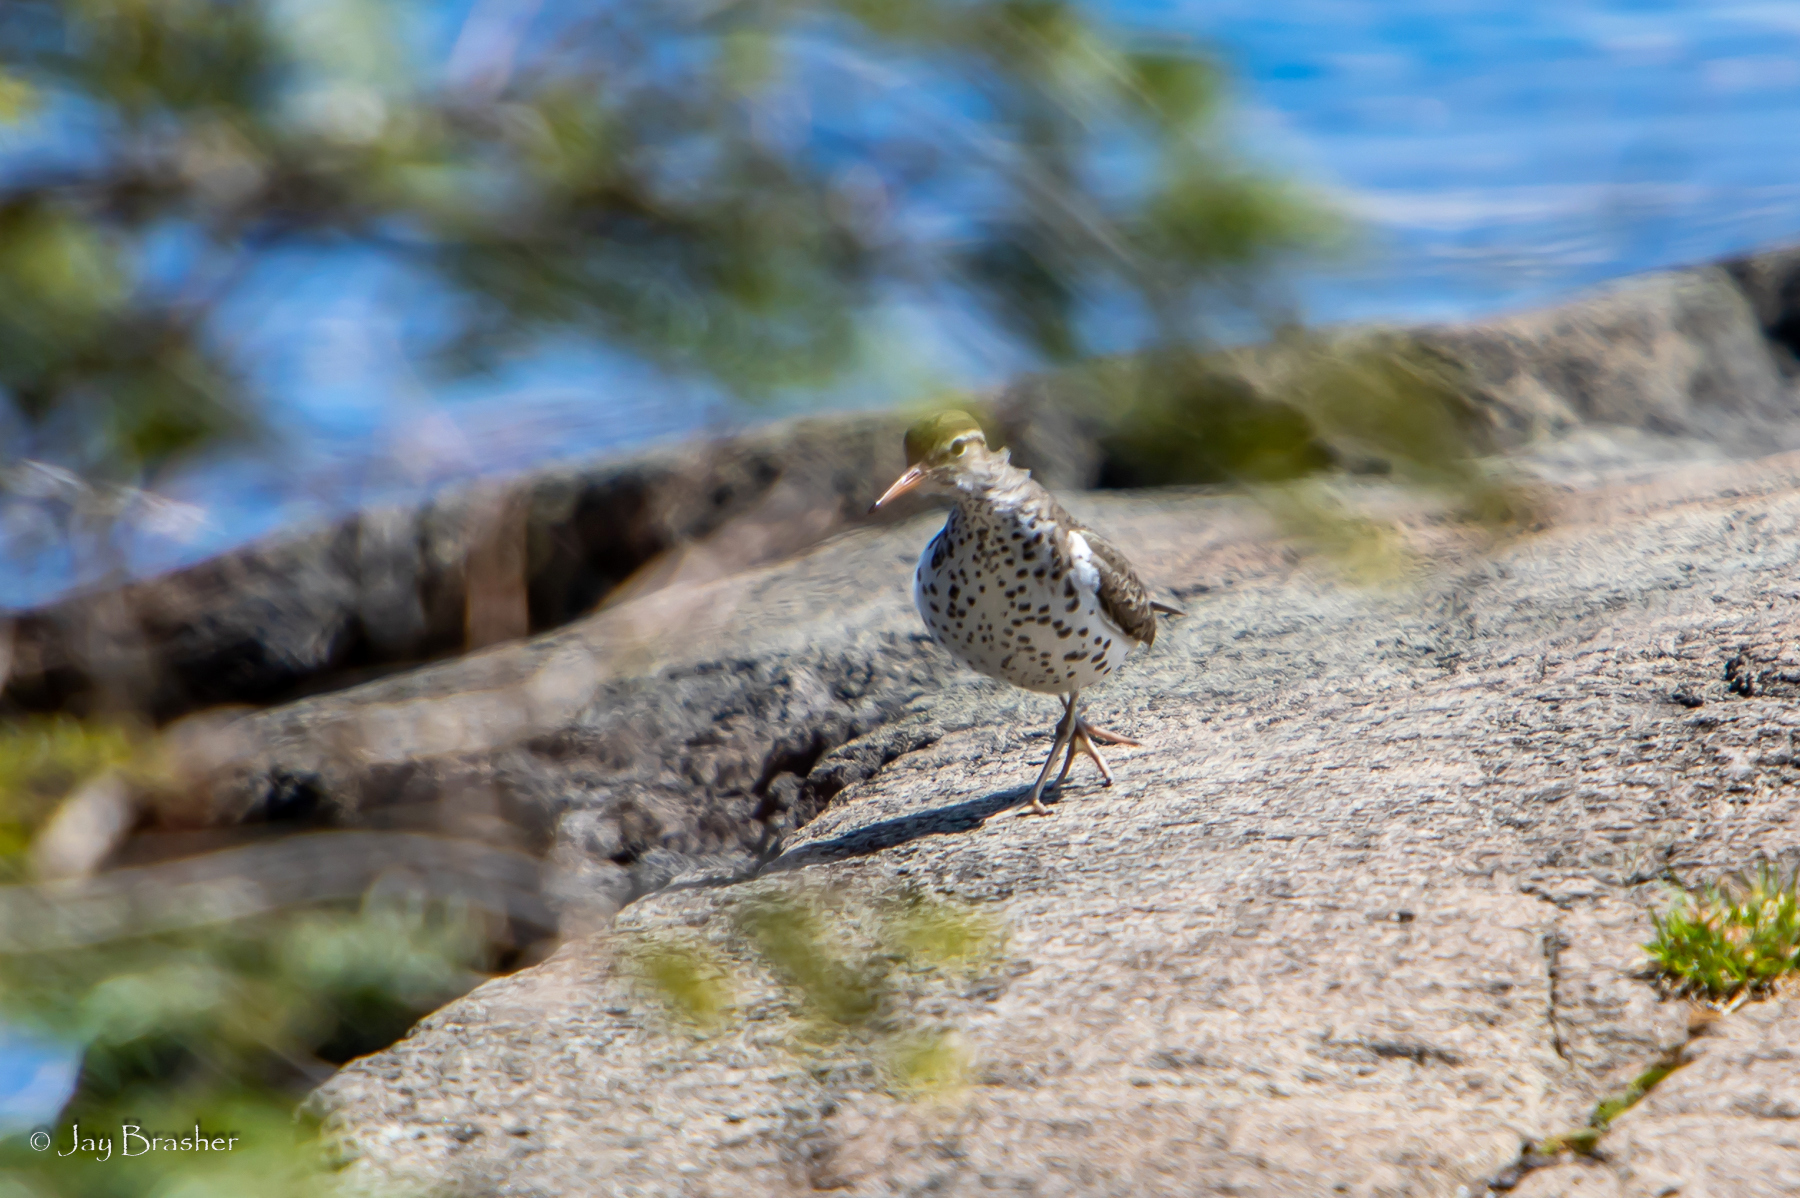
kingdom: Animalia
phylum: Chordata
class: Aves
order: Charadriiformes
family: Scolopacidae
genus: Actitis
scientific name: Actitis macularius
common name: Spotted sandpiper
